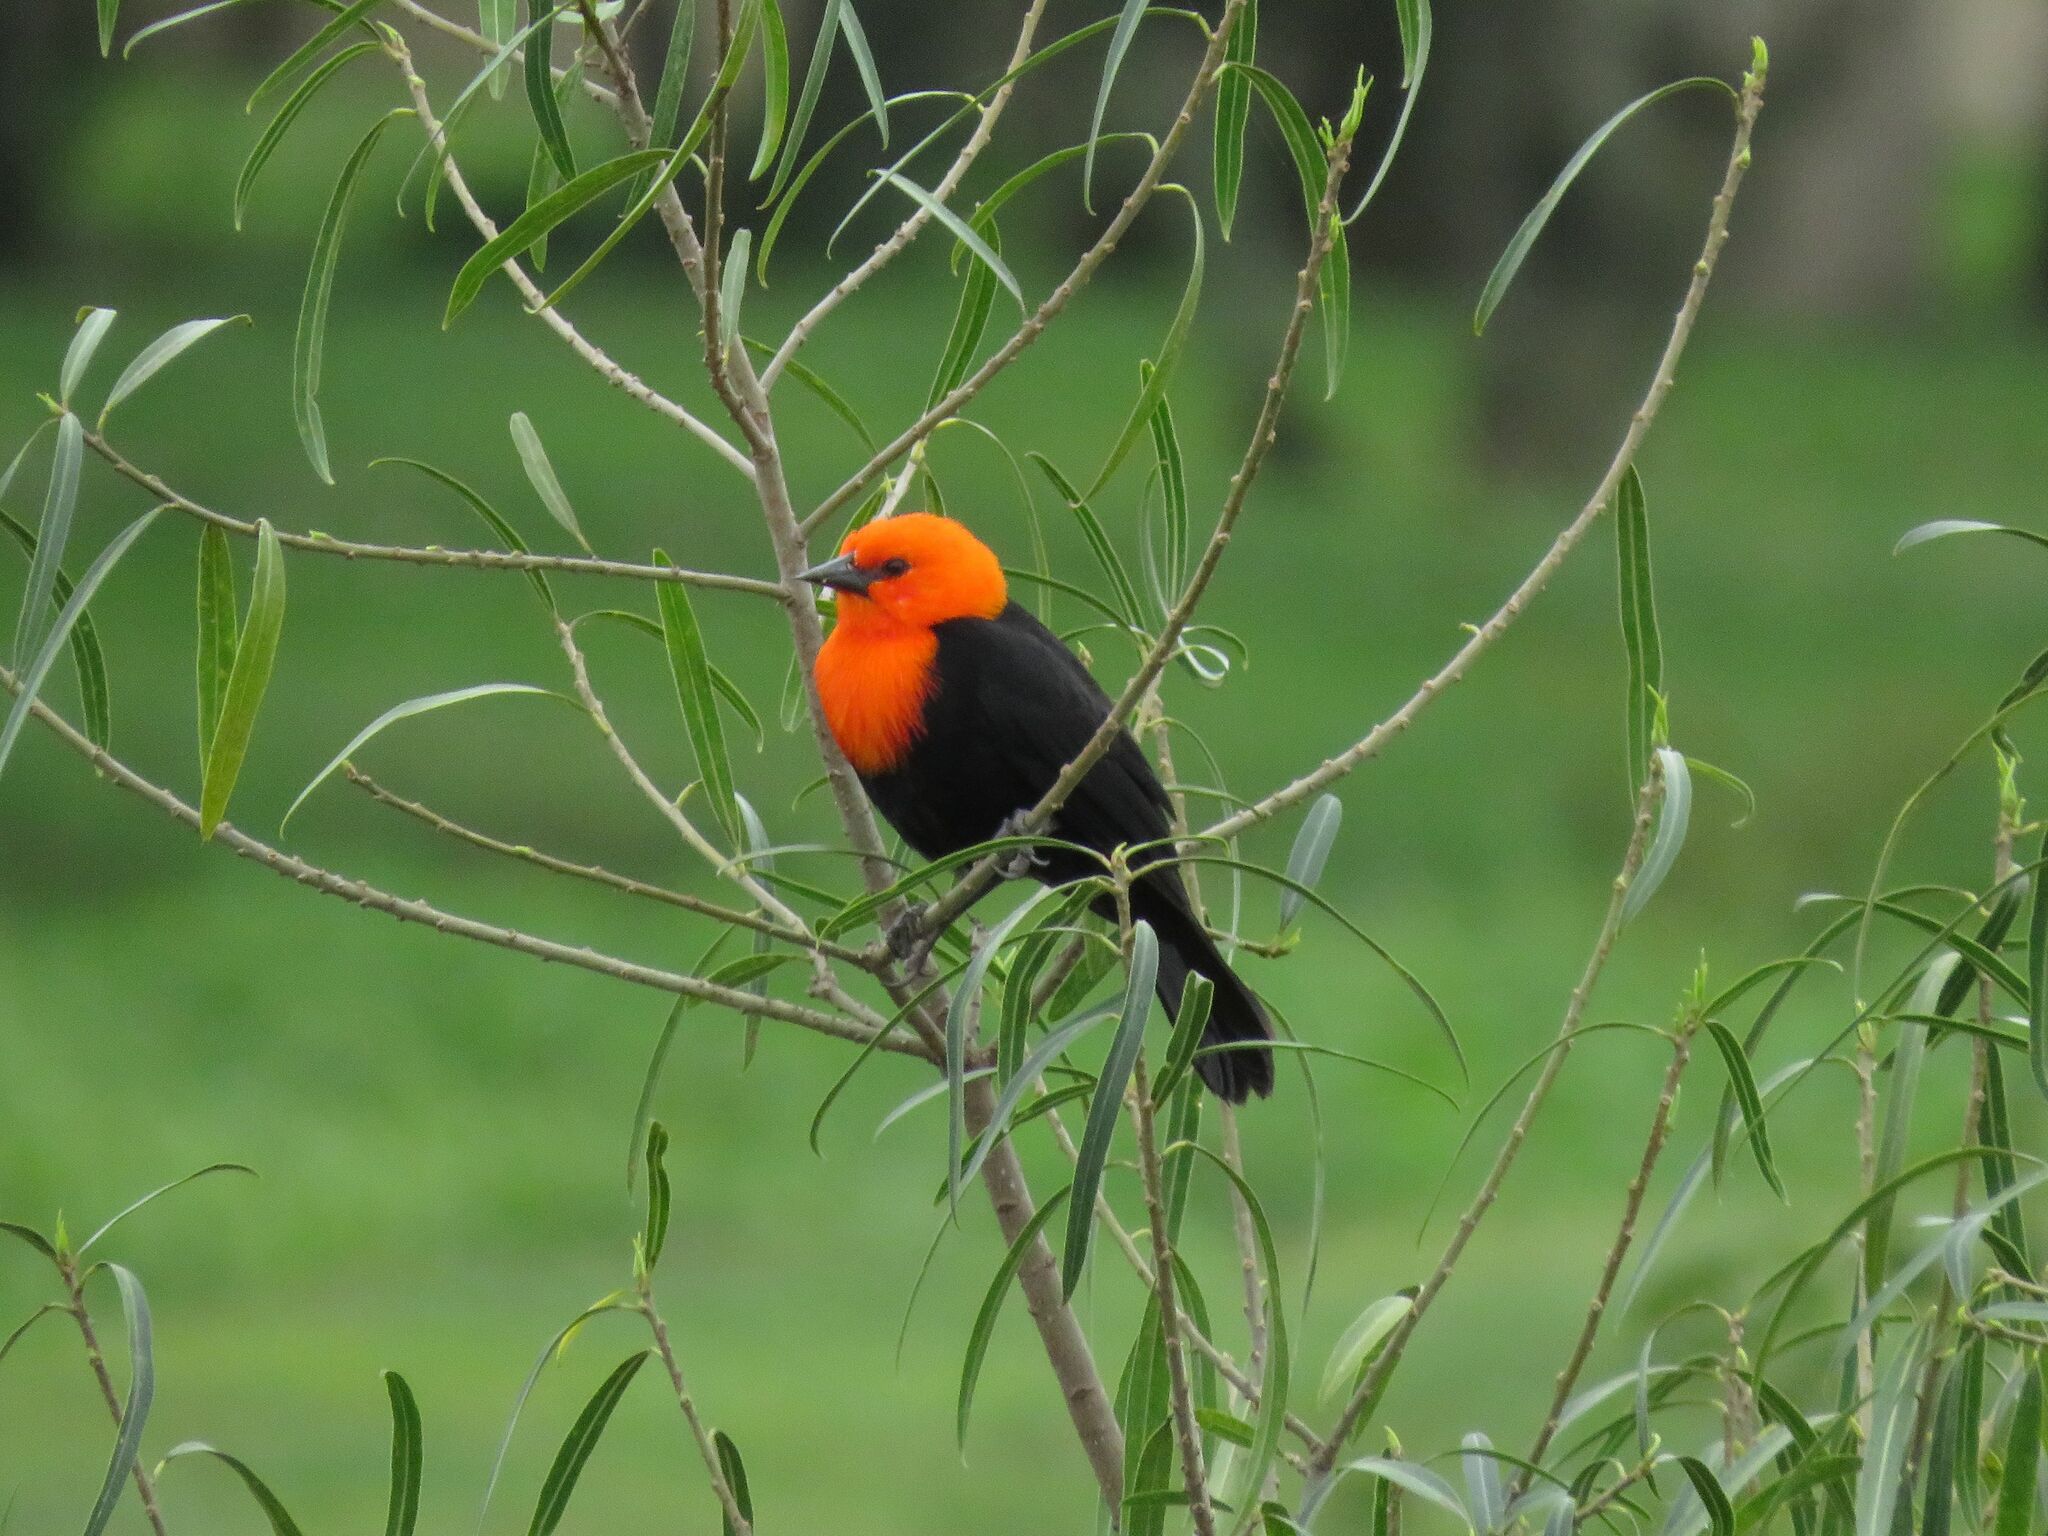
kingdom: Animalia
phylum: Chordata
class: Aves
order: Passeriformes
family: Icteridae
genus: Amblyramphus
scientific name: Amblyramphus holosericeus
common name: Scarlet-headed blackbird
